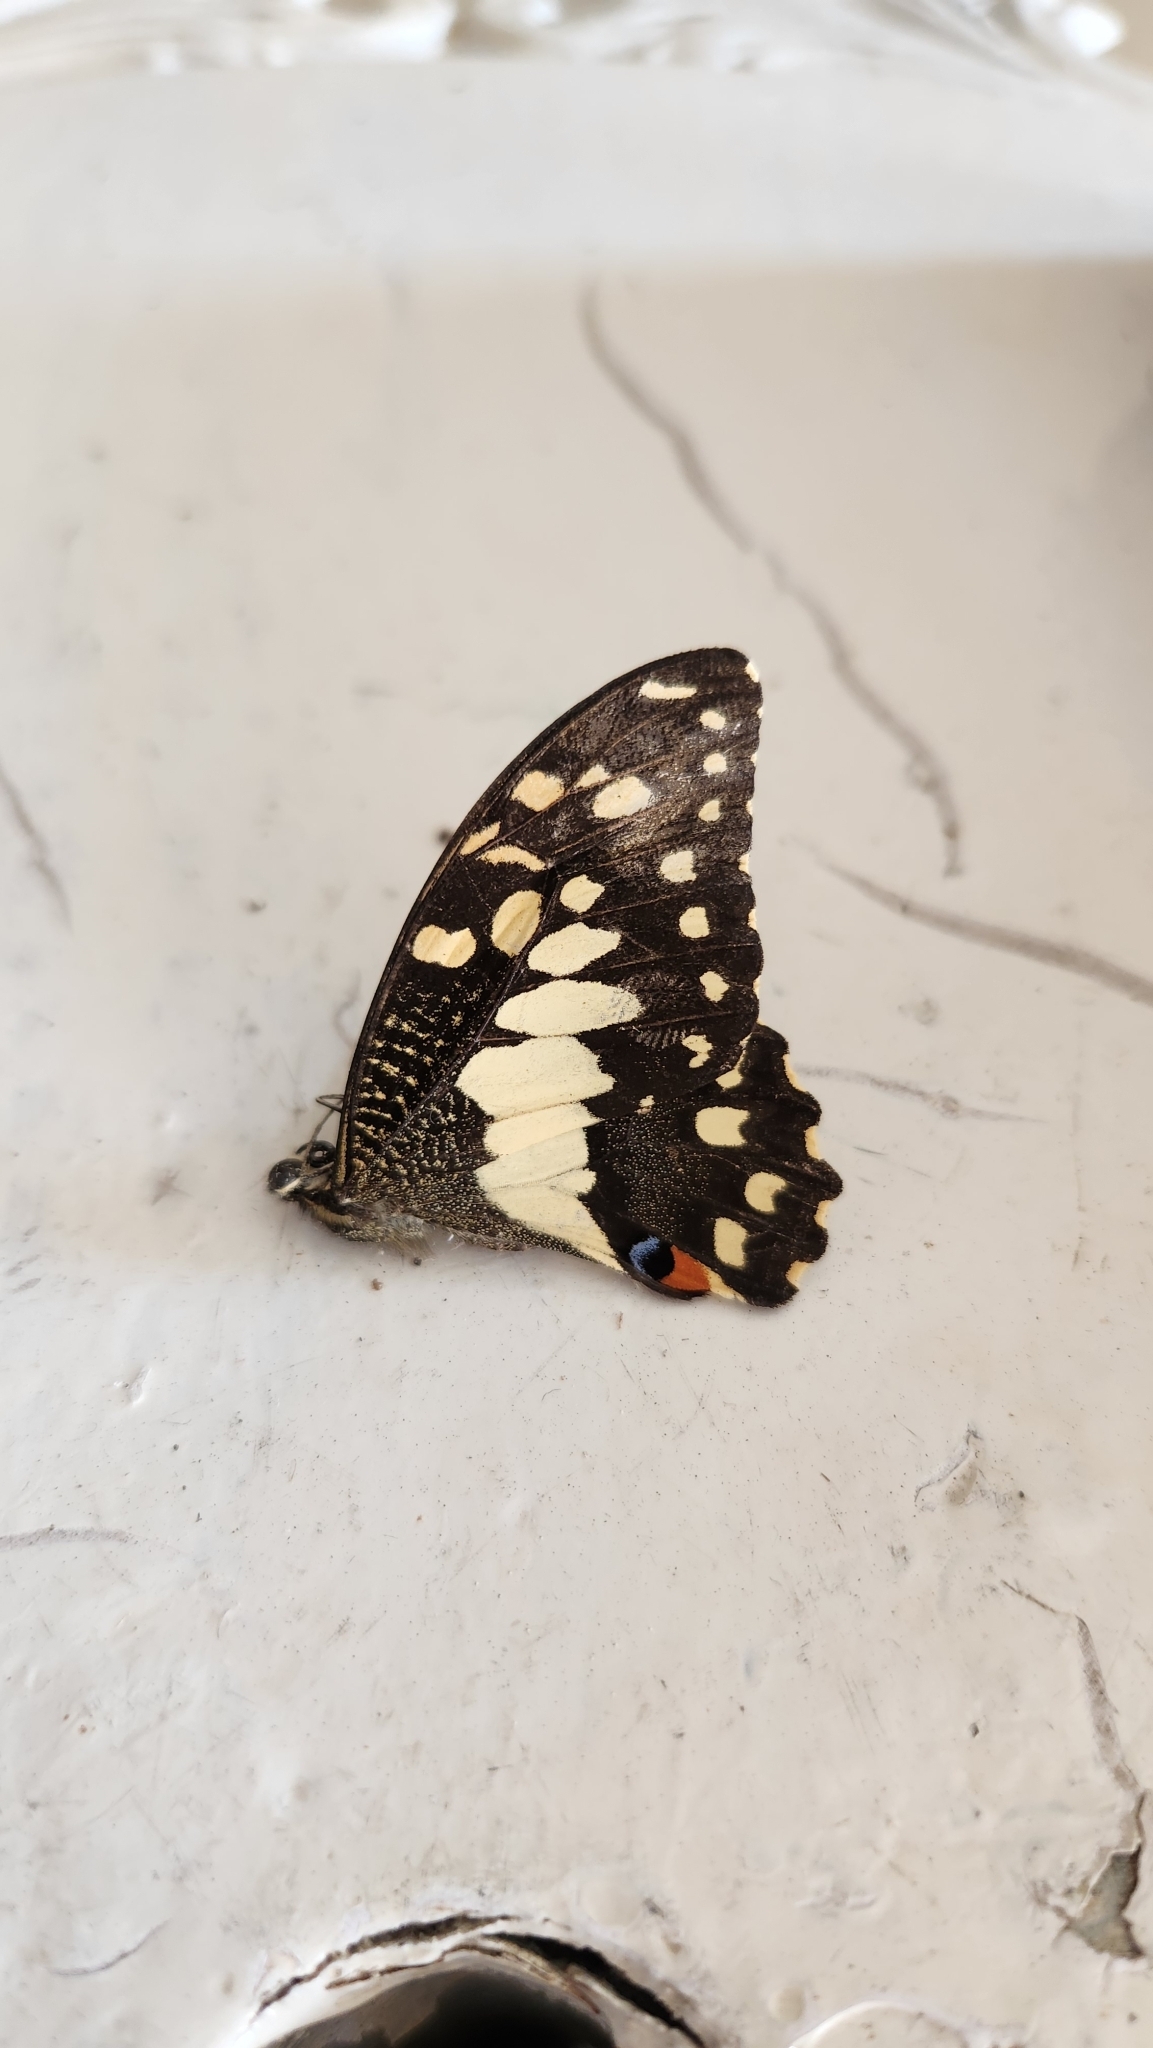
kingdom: Animalia
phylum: Arthropoda
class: Insecta
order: Lepidoptera
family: Papilionidae
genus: Papilio
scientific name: Papilio demoleus
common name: Lime butterfly
